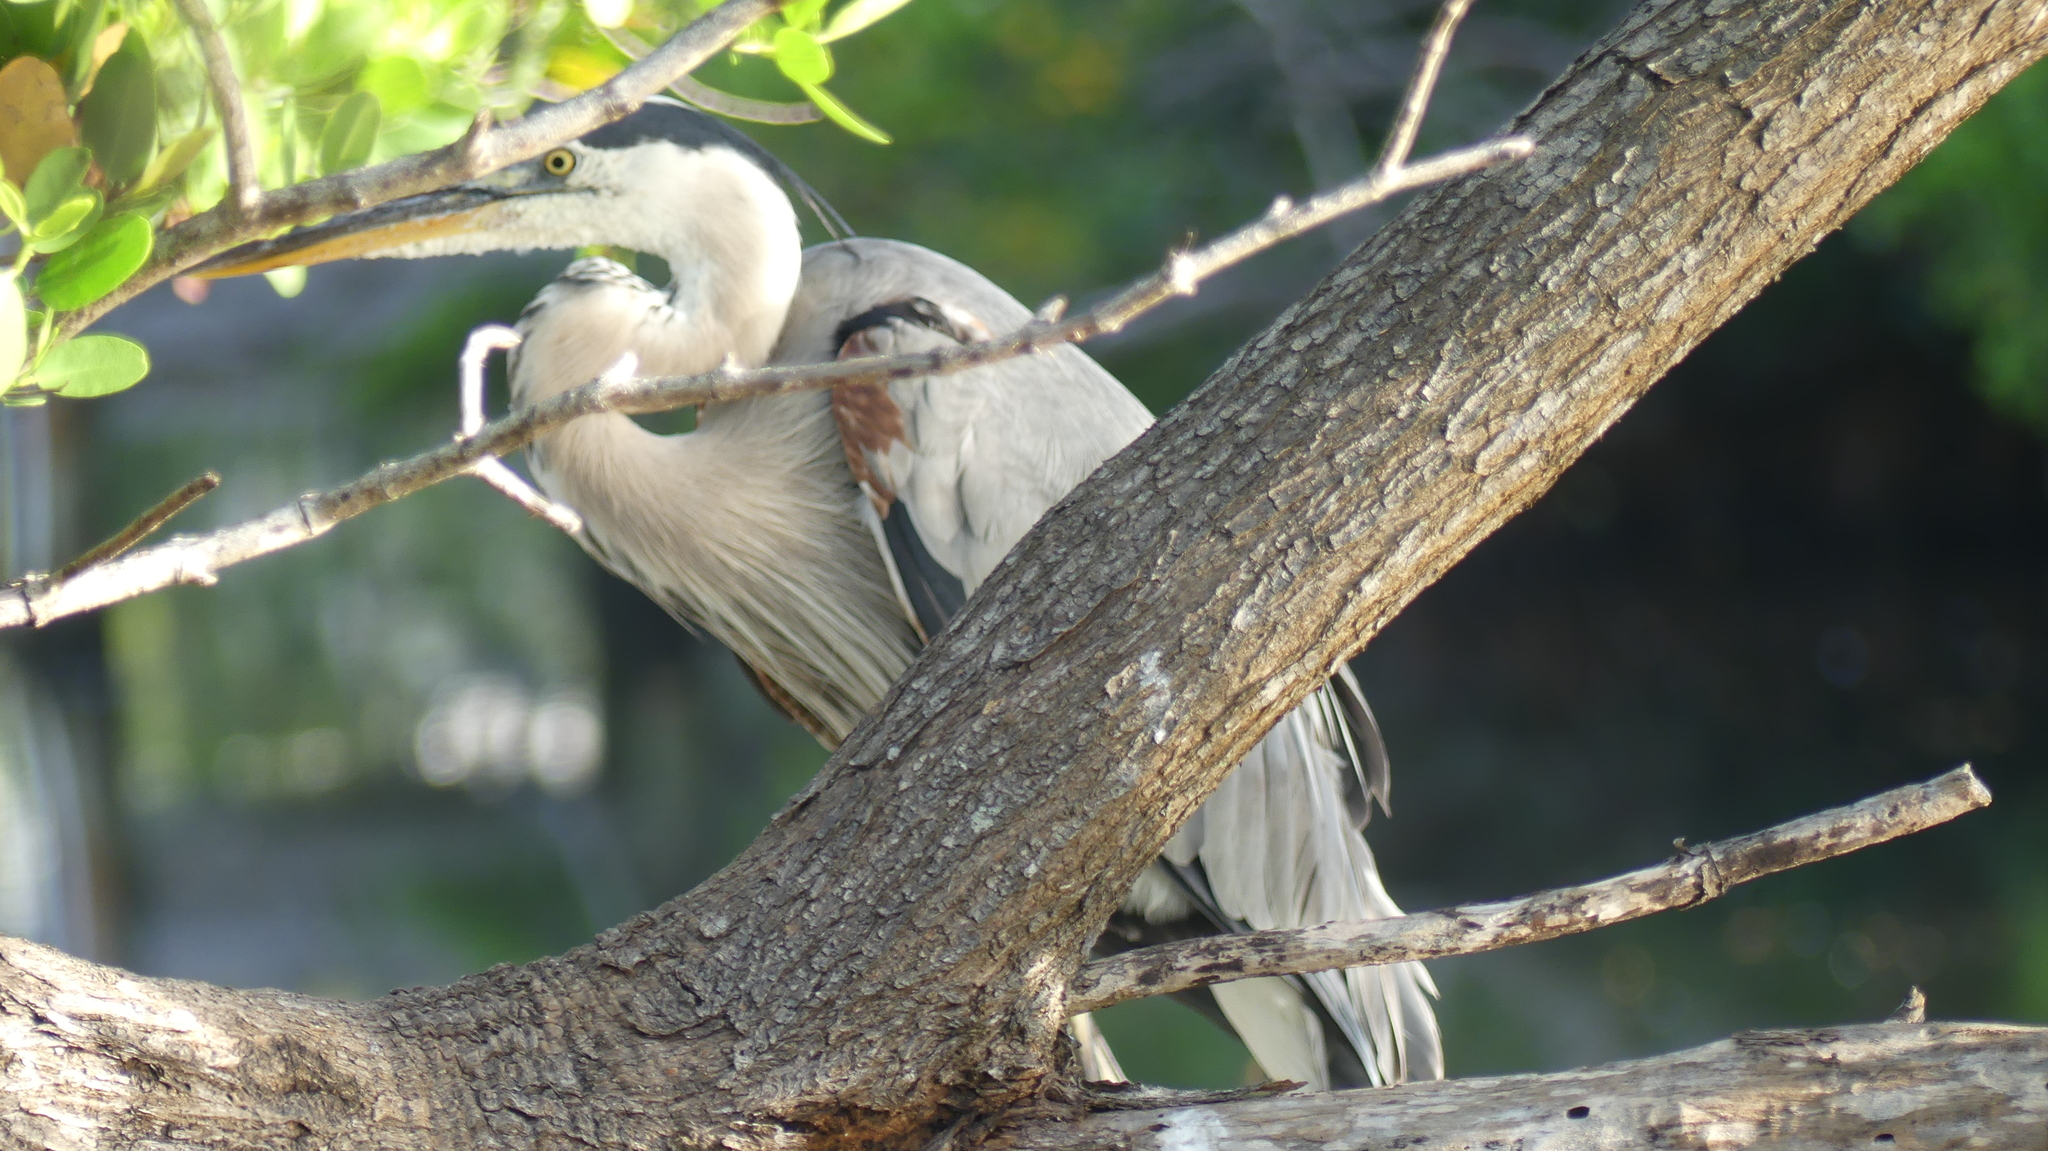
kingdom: Animalia
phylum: Chordata
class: Aves
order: Pelecaniformes
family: Ardeidae
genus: Ardea
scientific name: Ardea herodias
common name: Great blue heron
